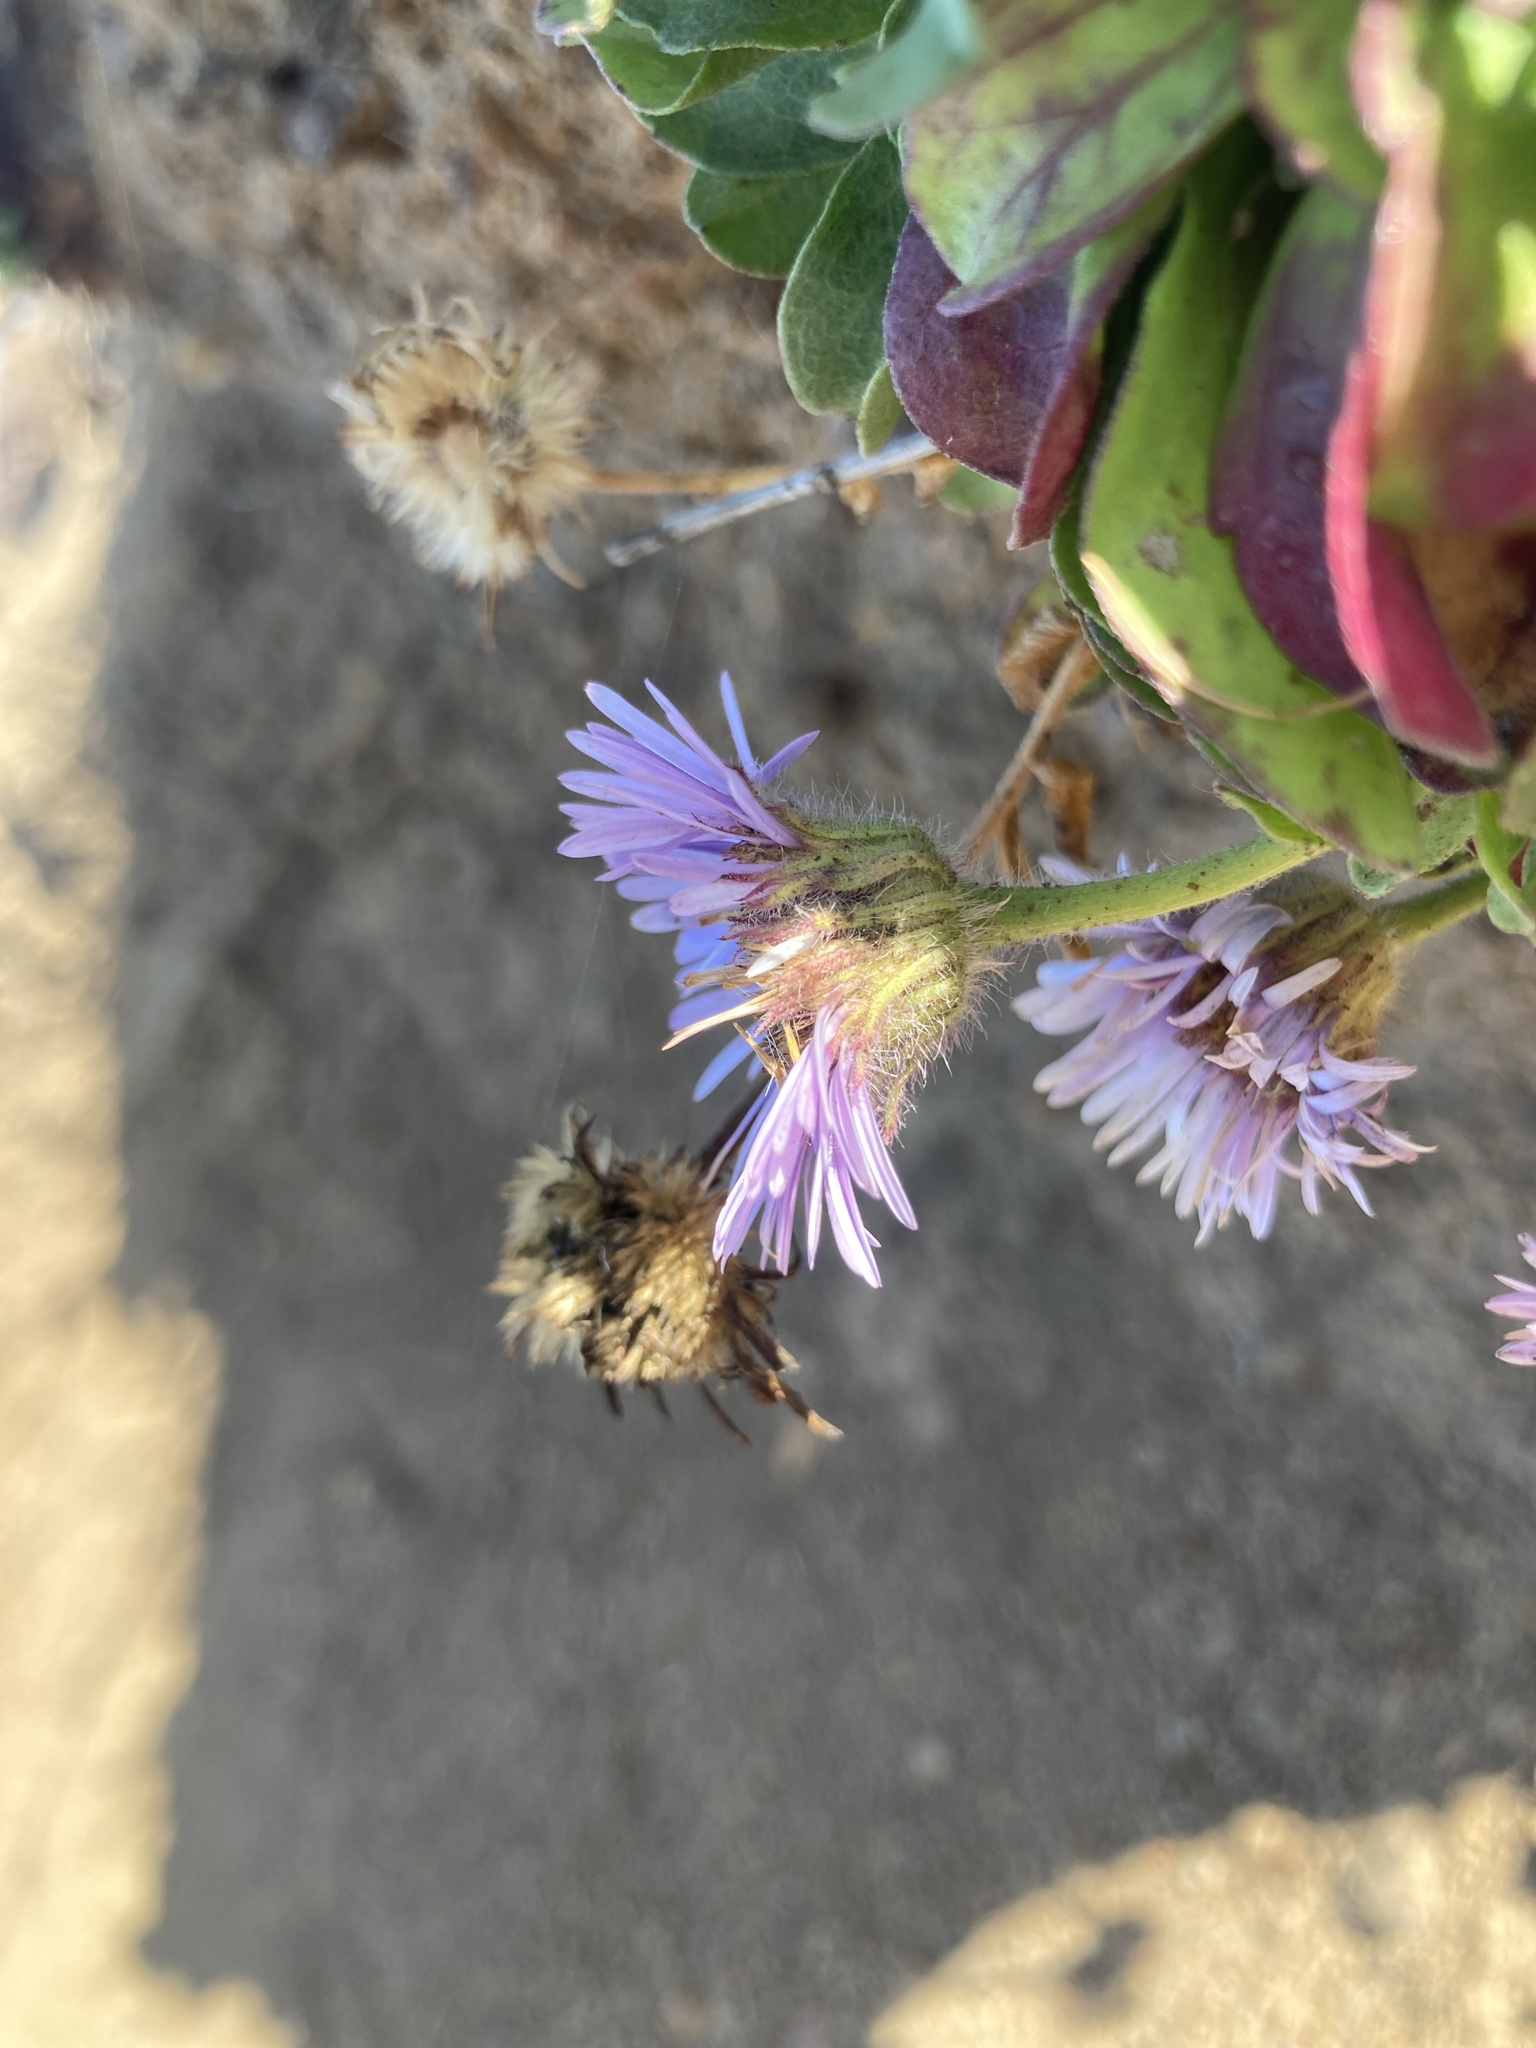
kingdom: Plantae
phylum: Tracheophyta
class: Magnoliopsida
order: Asterales
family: Asteraceae
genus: Erigeron
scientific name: Erigeron glaucus
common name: Seaside daisy
